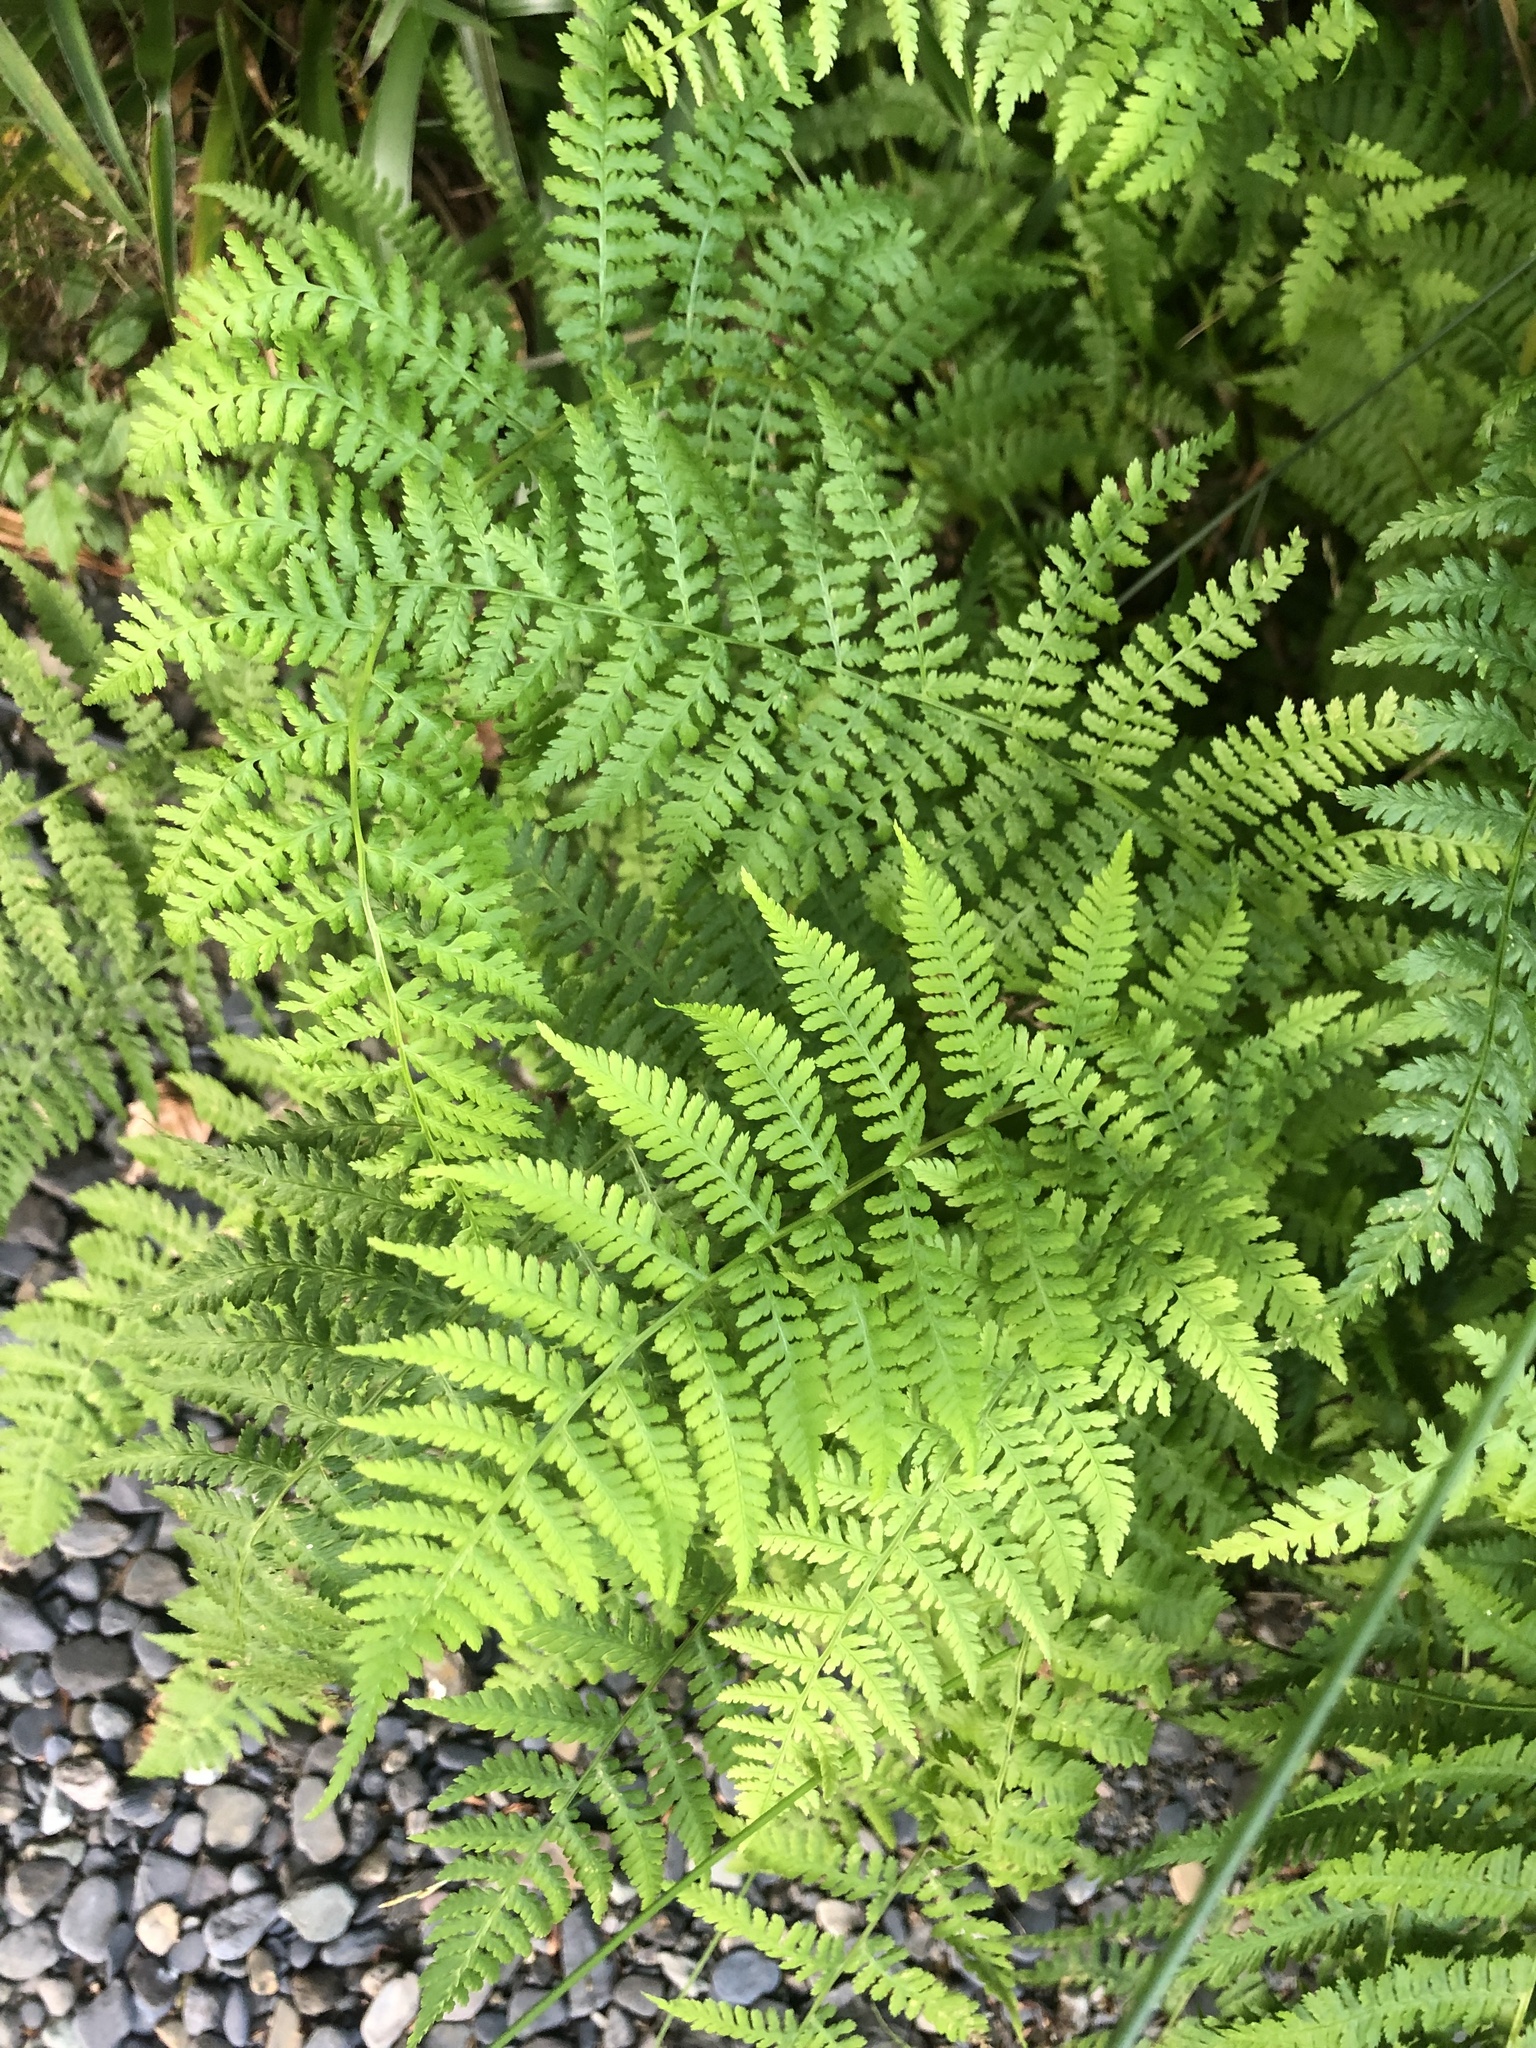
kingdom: Plantae
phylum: Tracheophyta
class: Polypodiopsida
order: Polypodiales
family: Athyriaceae
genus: Athyrium
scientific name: Athyrium filix-femina
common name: Lady fern
